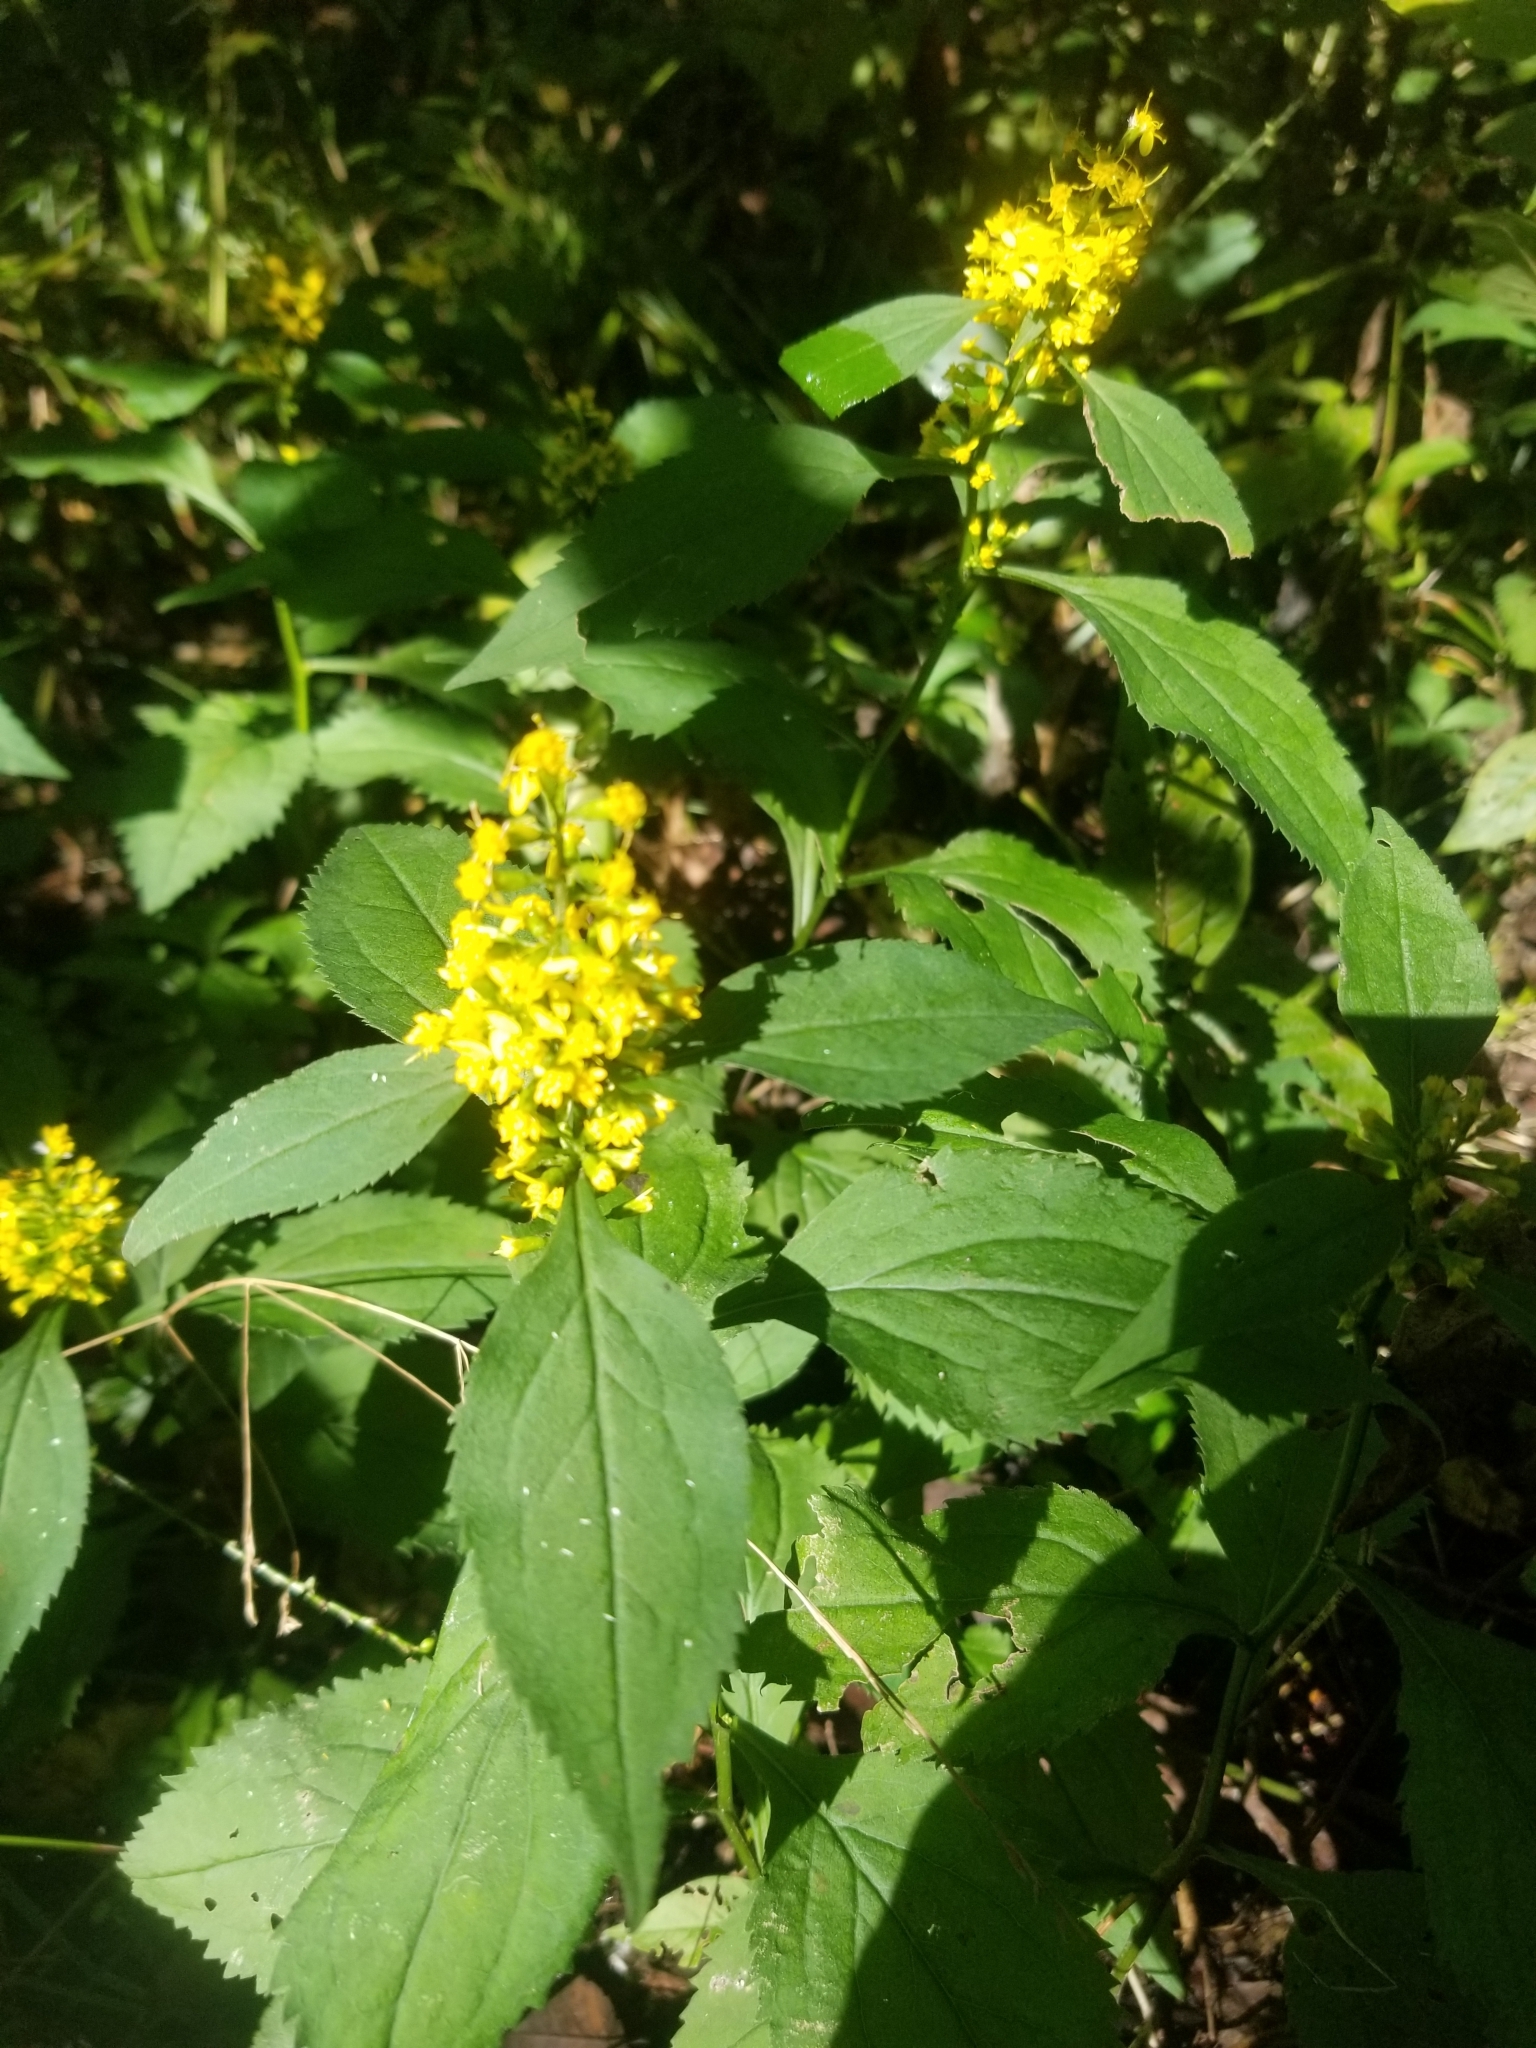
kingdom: Plantae
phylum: Tracheophyta
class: Magnoliopsida
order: Asterales
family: Asteraceae
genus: Solidago
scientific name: Solidago flexicaulis
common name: Zig-zag goldenrod
